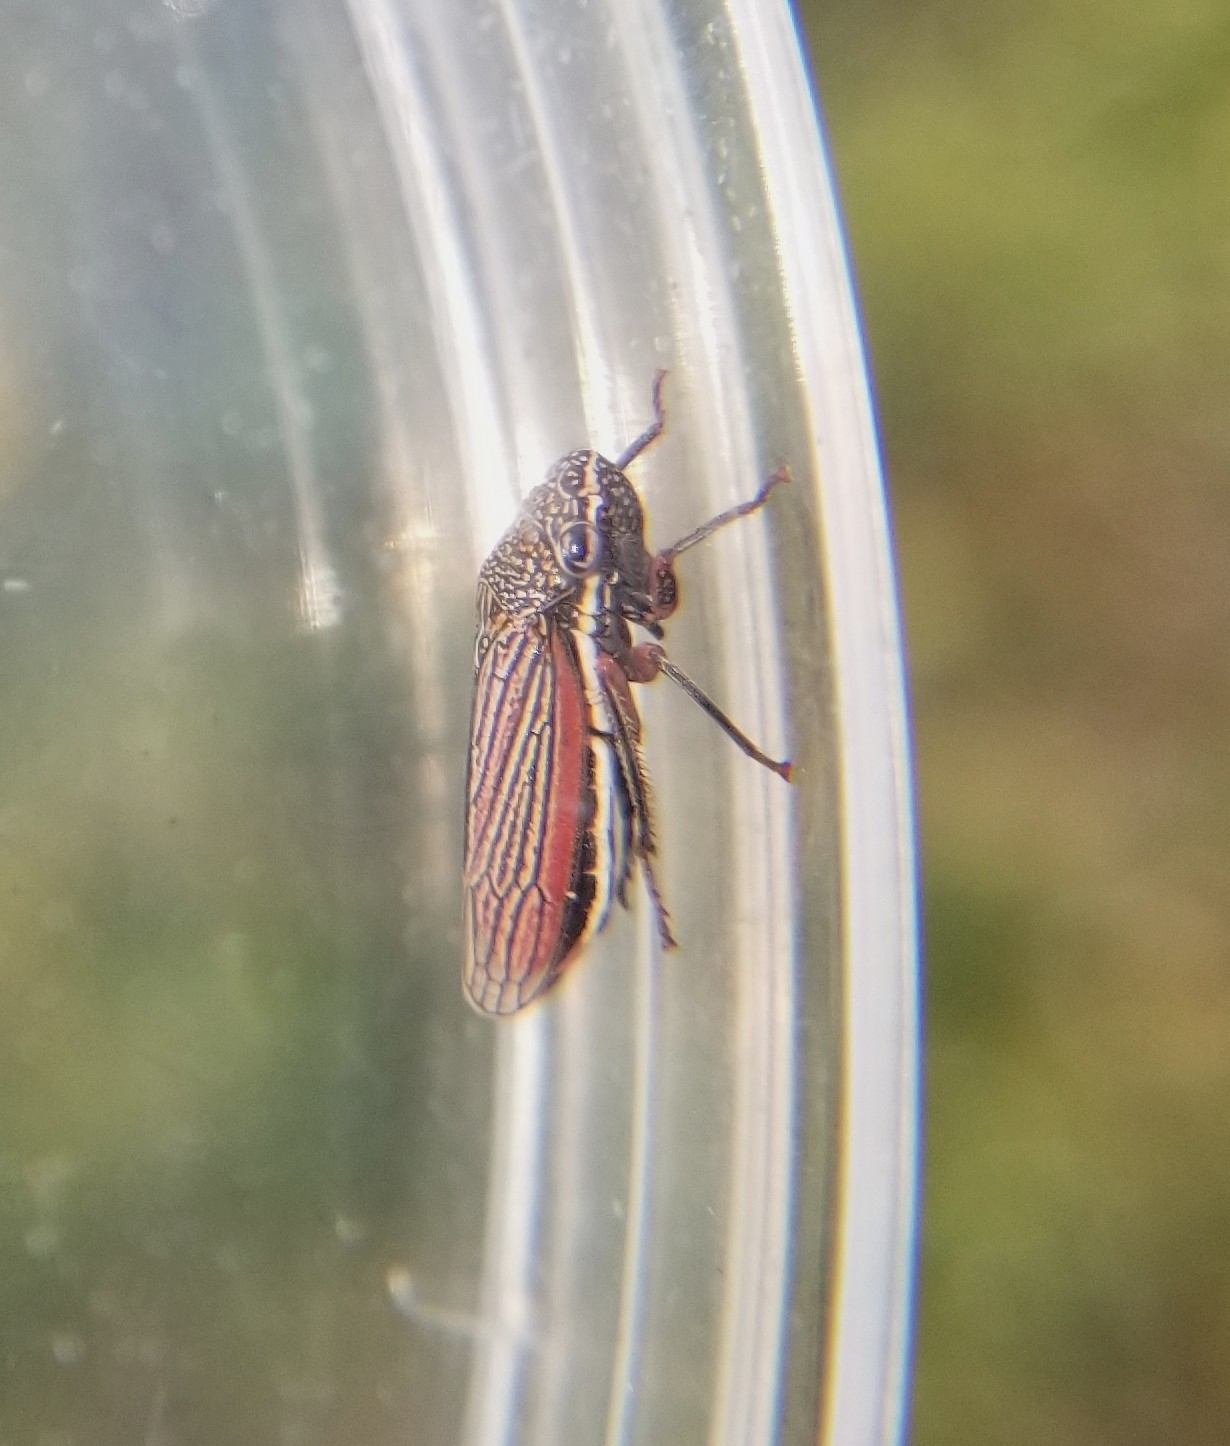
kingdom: Animalia
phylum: Arthropoda
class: Insecta
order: Hemiptera
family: Cicadellidae
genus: Cuerna
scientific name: Cuerna costalis
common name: Lateral-lined sharpshooter
